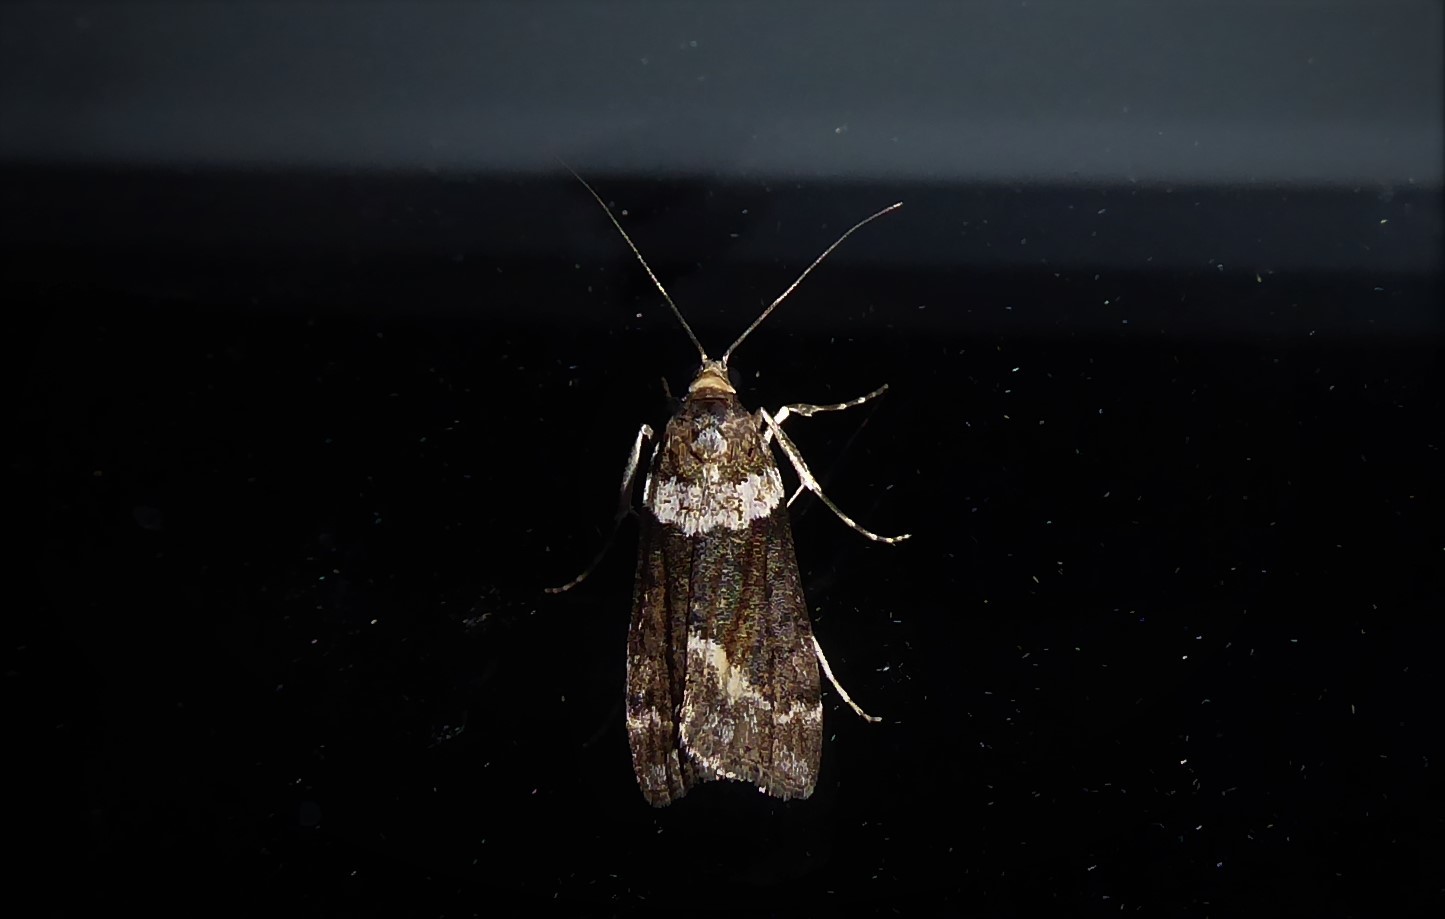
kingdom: Animalia
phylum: Arthropoda
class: Insecta
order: Lepidoptera
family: Crambidae
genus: Eudonia
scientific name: Eudonia submarginalis
